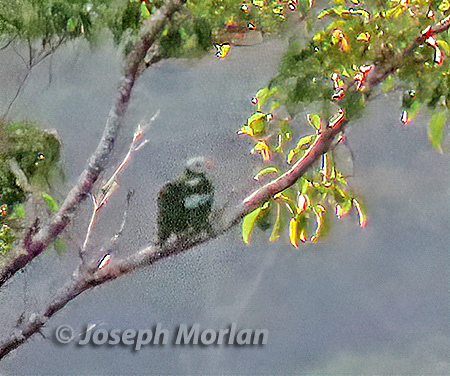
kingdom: Animalia
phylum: Chordata
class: Aves
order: Columbiformes
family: Columbidae
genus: Ptilinopus
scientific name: Ptilinopus granulifrons
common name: Carunculated fruit dove
